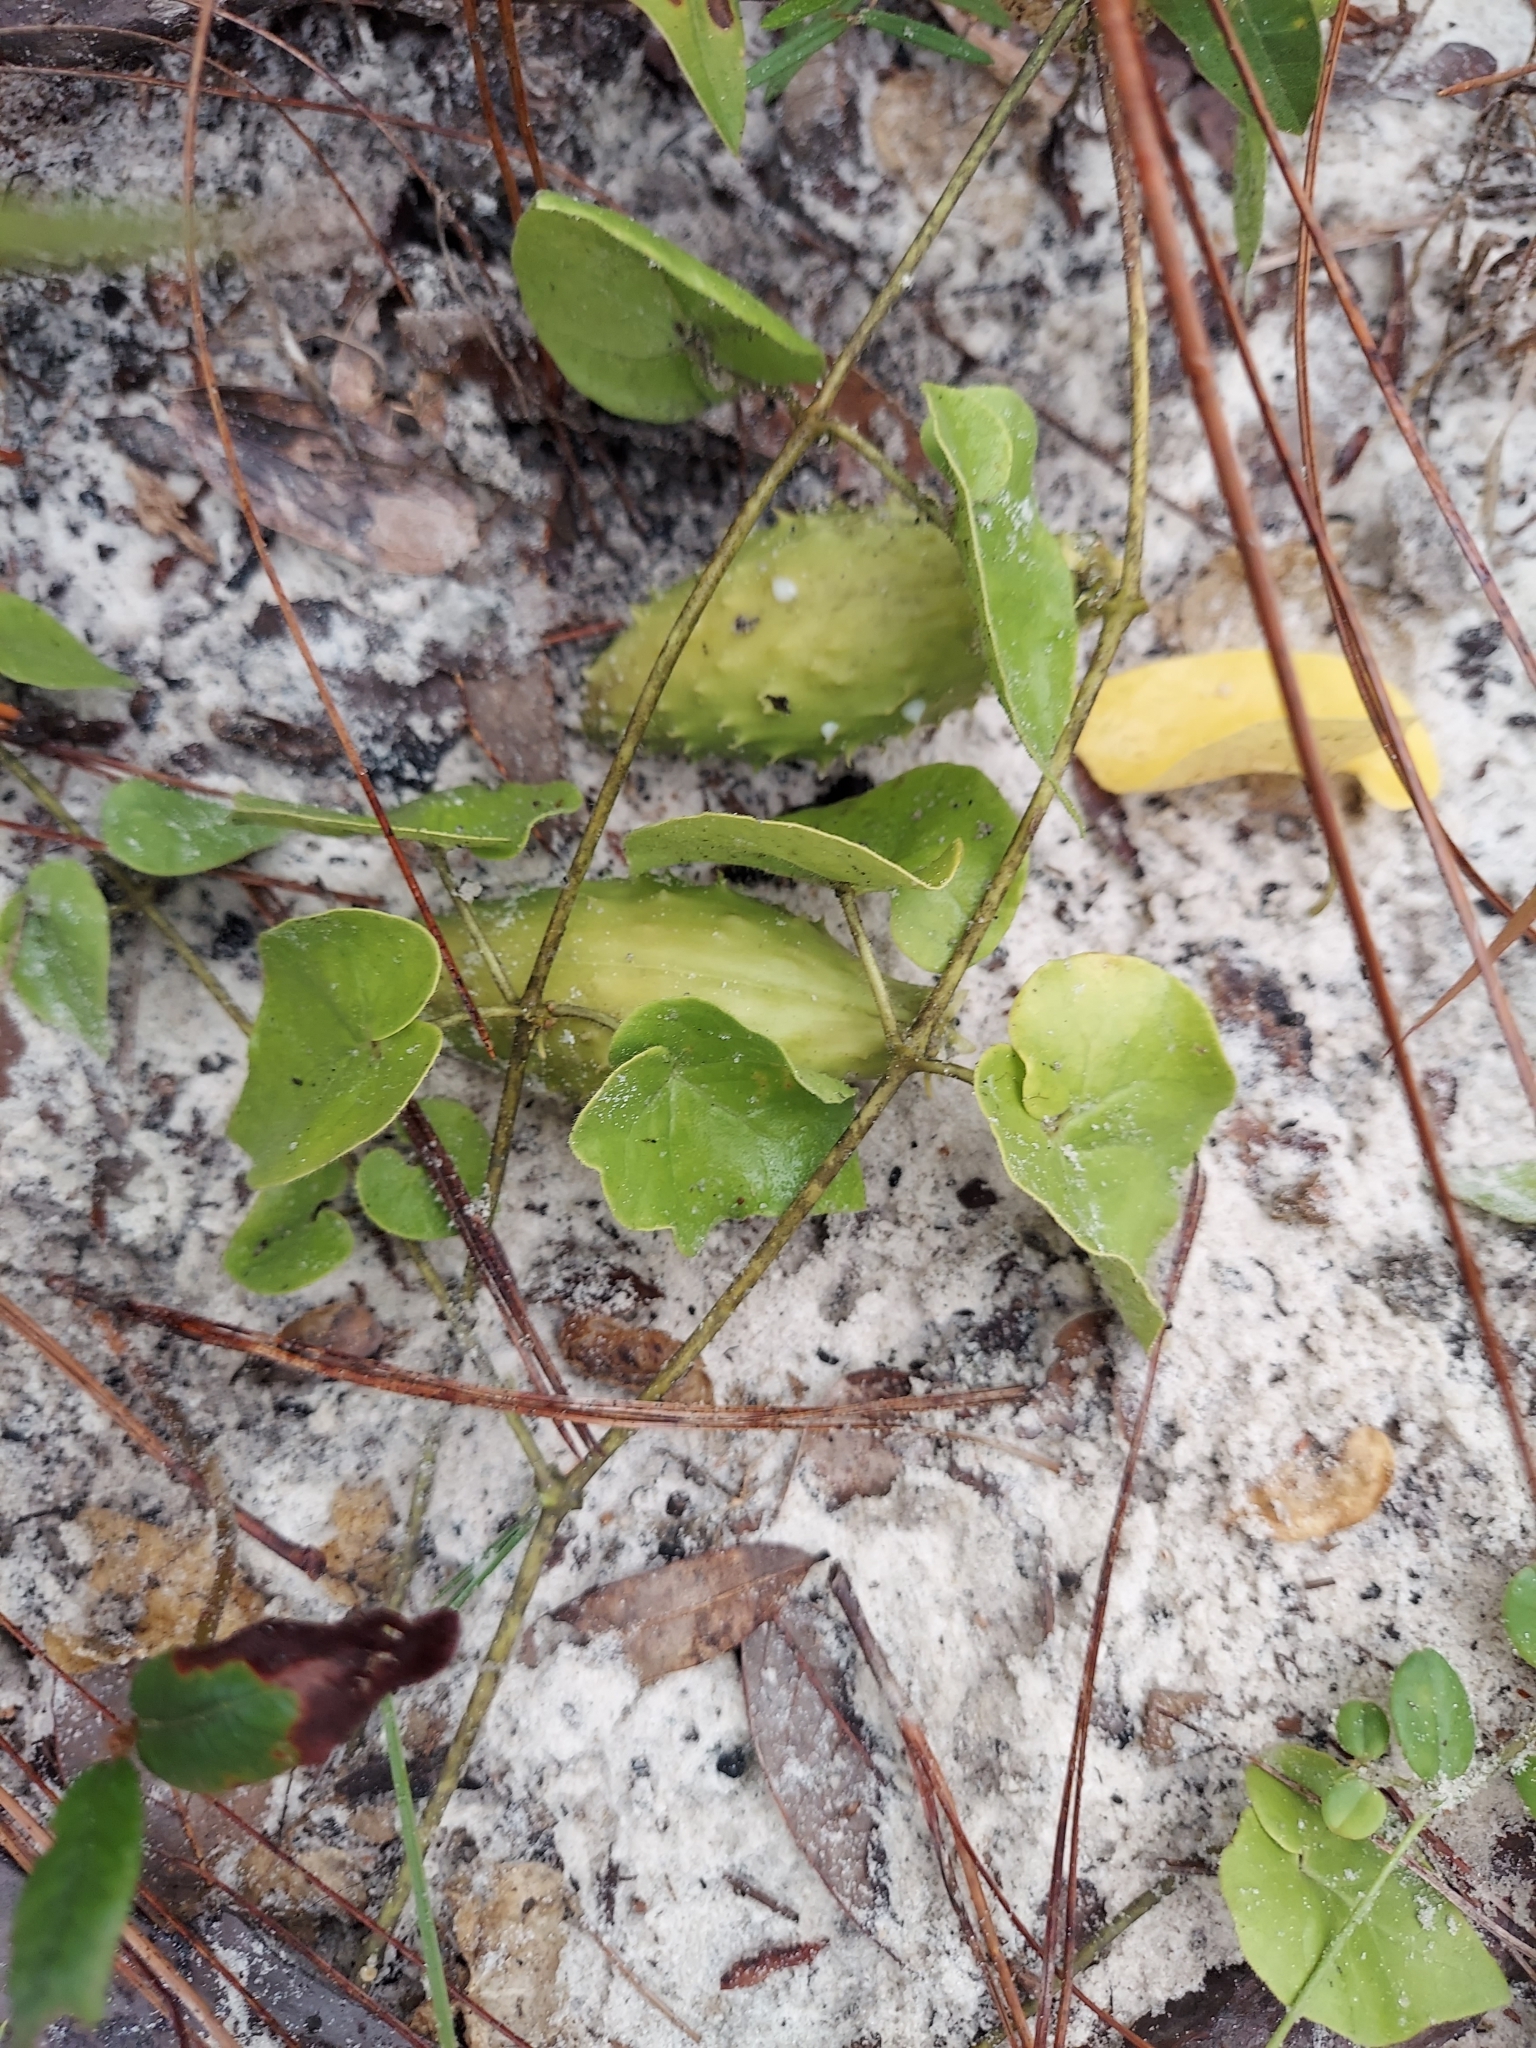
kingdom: Plantae
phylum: Tracheophyta
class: Magnoliopsida
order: Gentianales
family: Apocynaceae
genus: Chthamalia
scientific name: Chthamalia pubiflora
